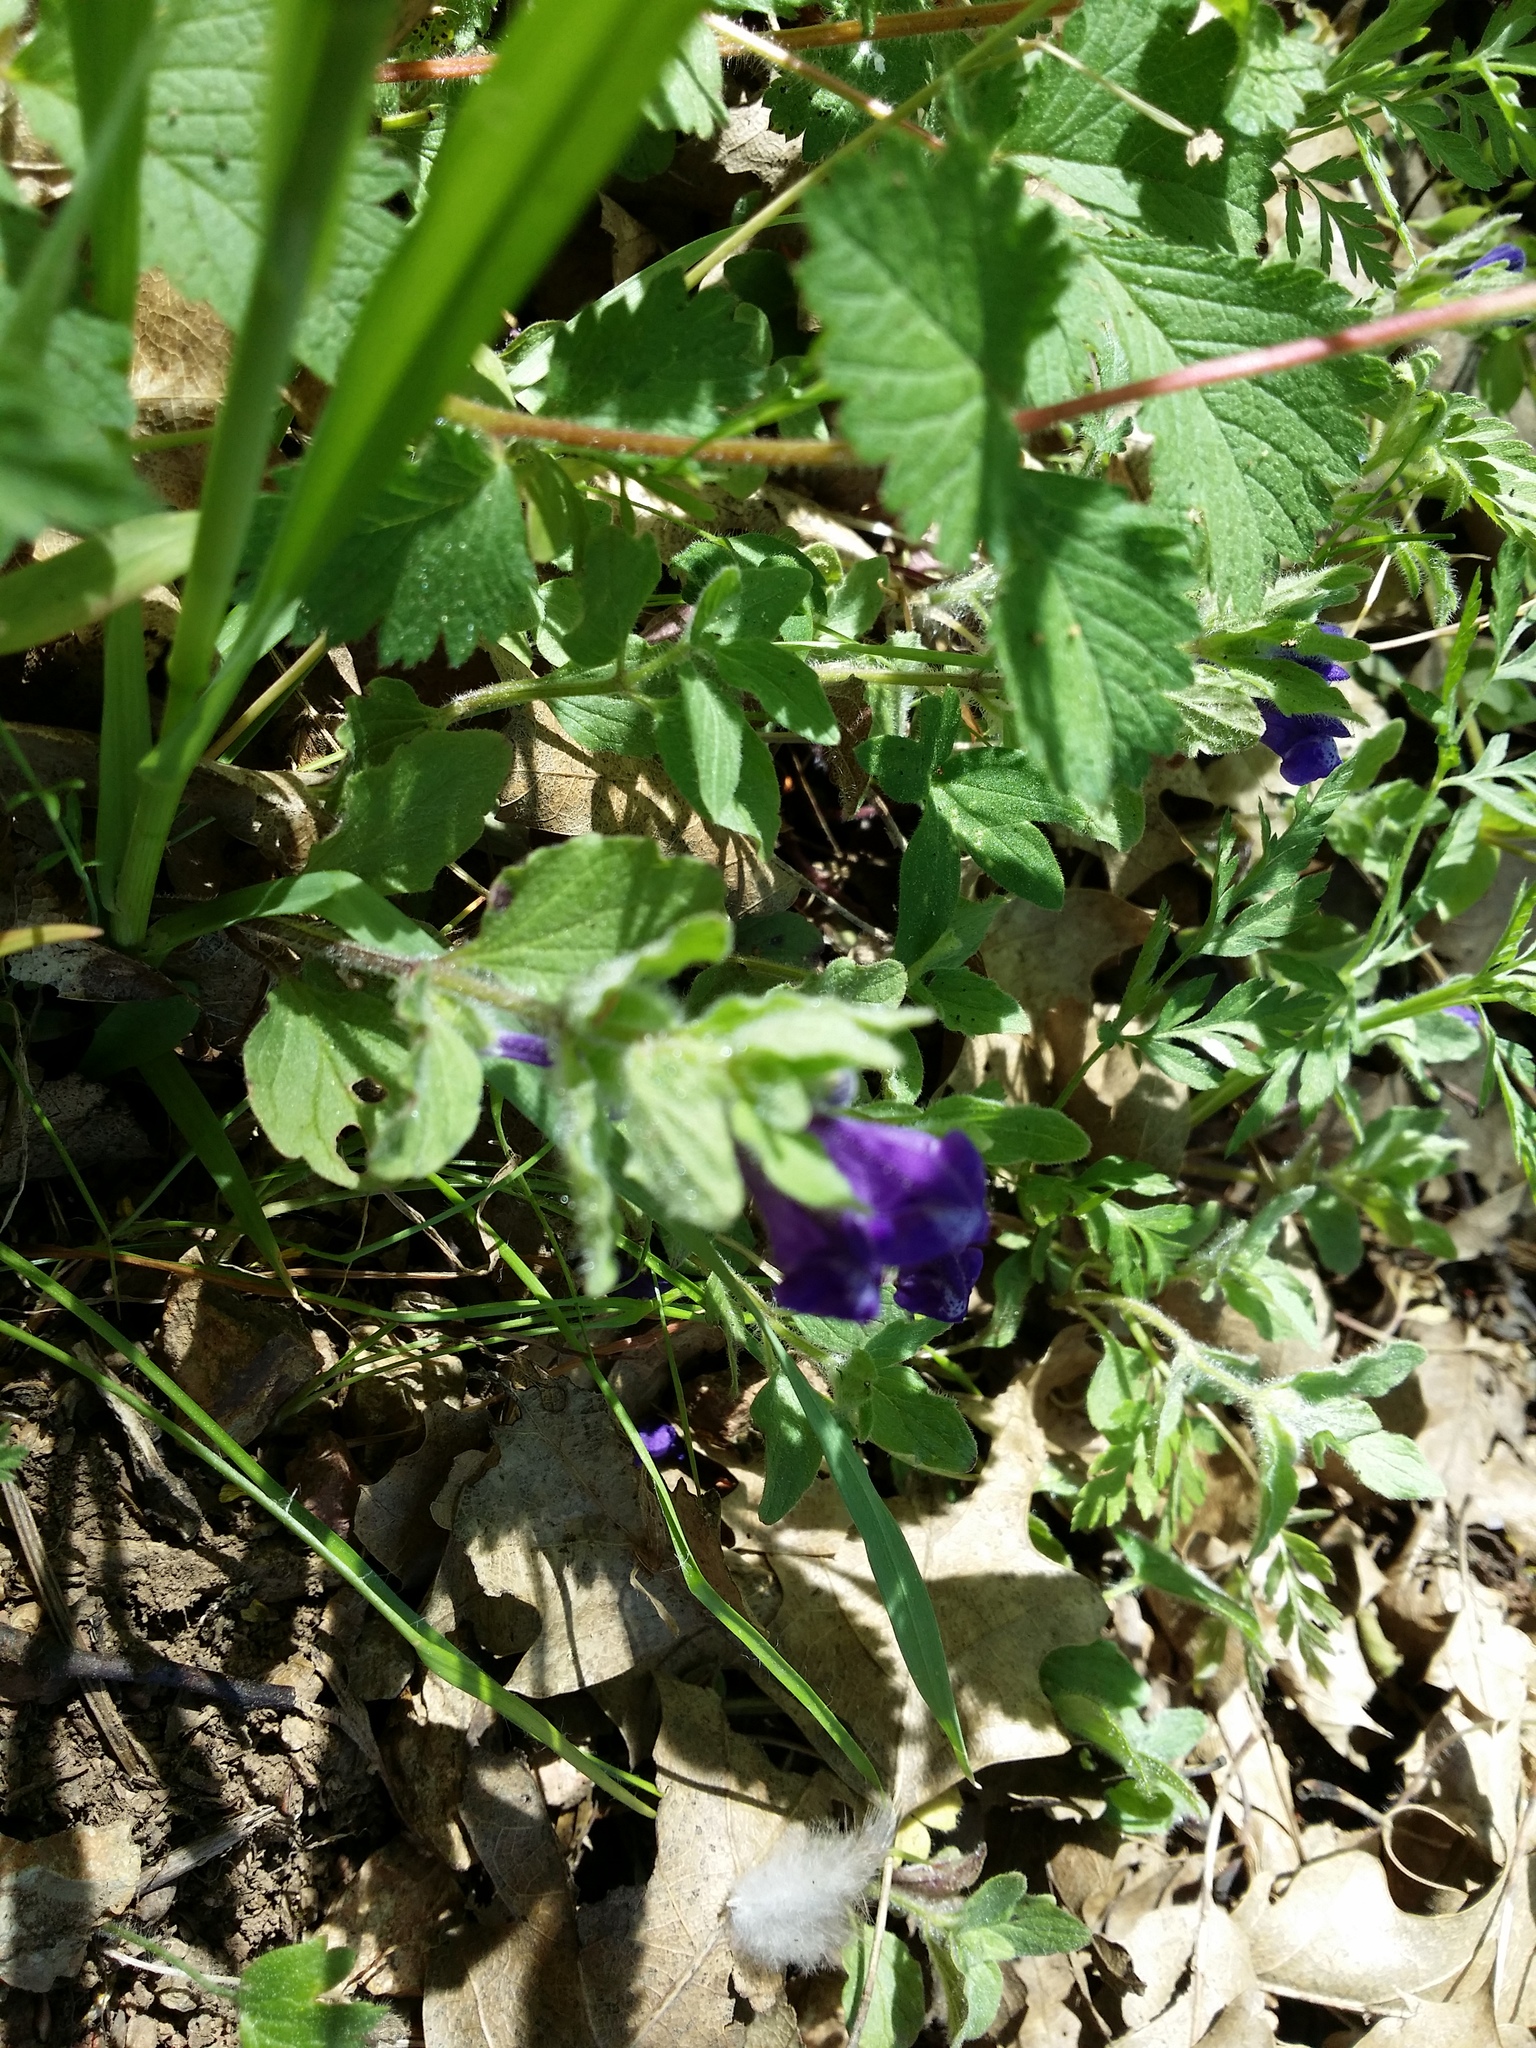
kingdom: Plantae
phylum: Tracheophyta
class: Magnoliopsida
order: Lamiales
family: Lamiaceae
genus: Scutellaria
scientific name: Scutellaria tuberosa
